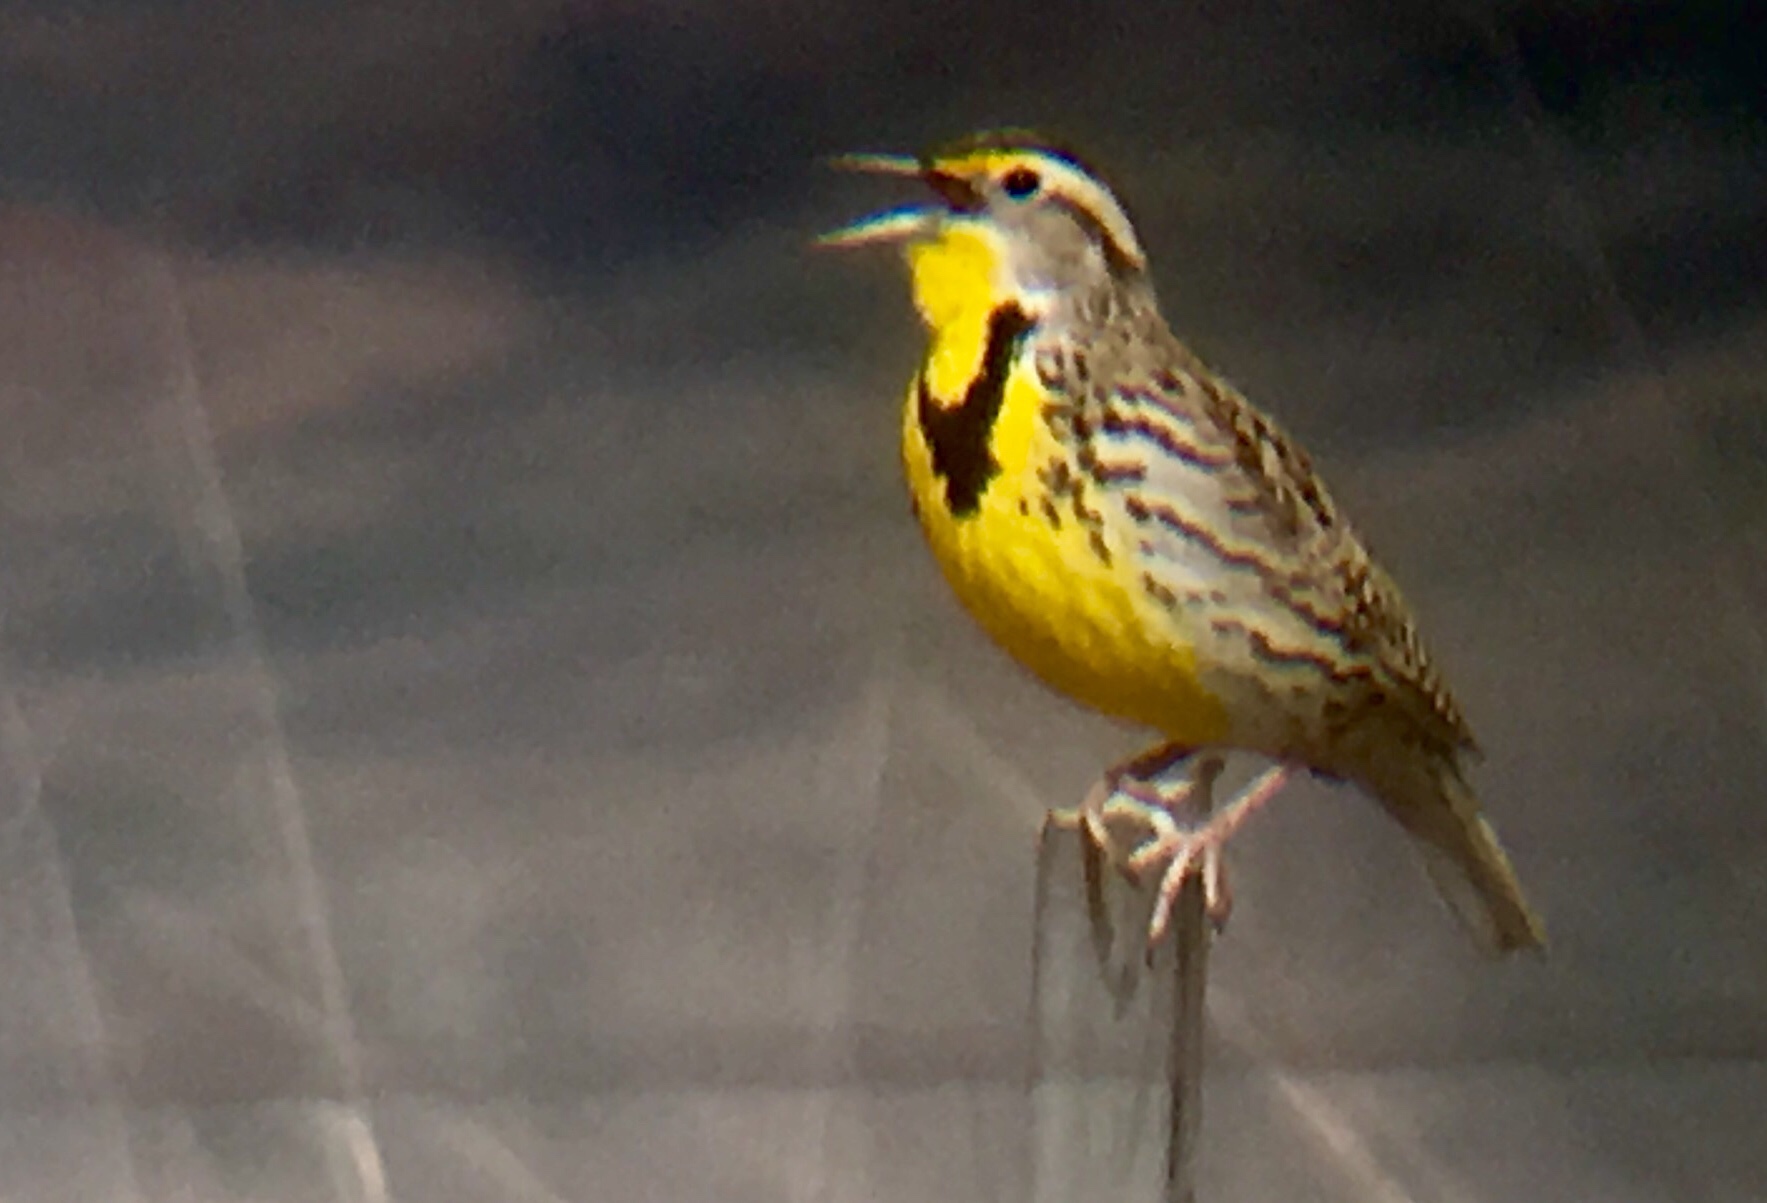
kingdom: Animalia
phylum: Chordata
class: Aves
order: Passeriformes
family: Icteridae
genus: Sturnella
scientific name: Sturnella neglecta
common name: Western meadowlark
